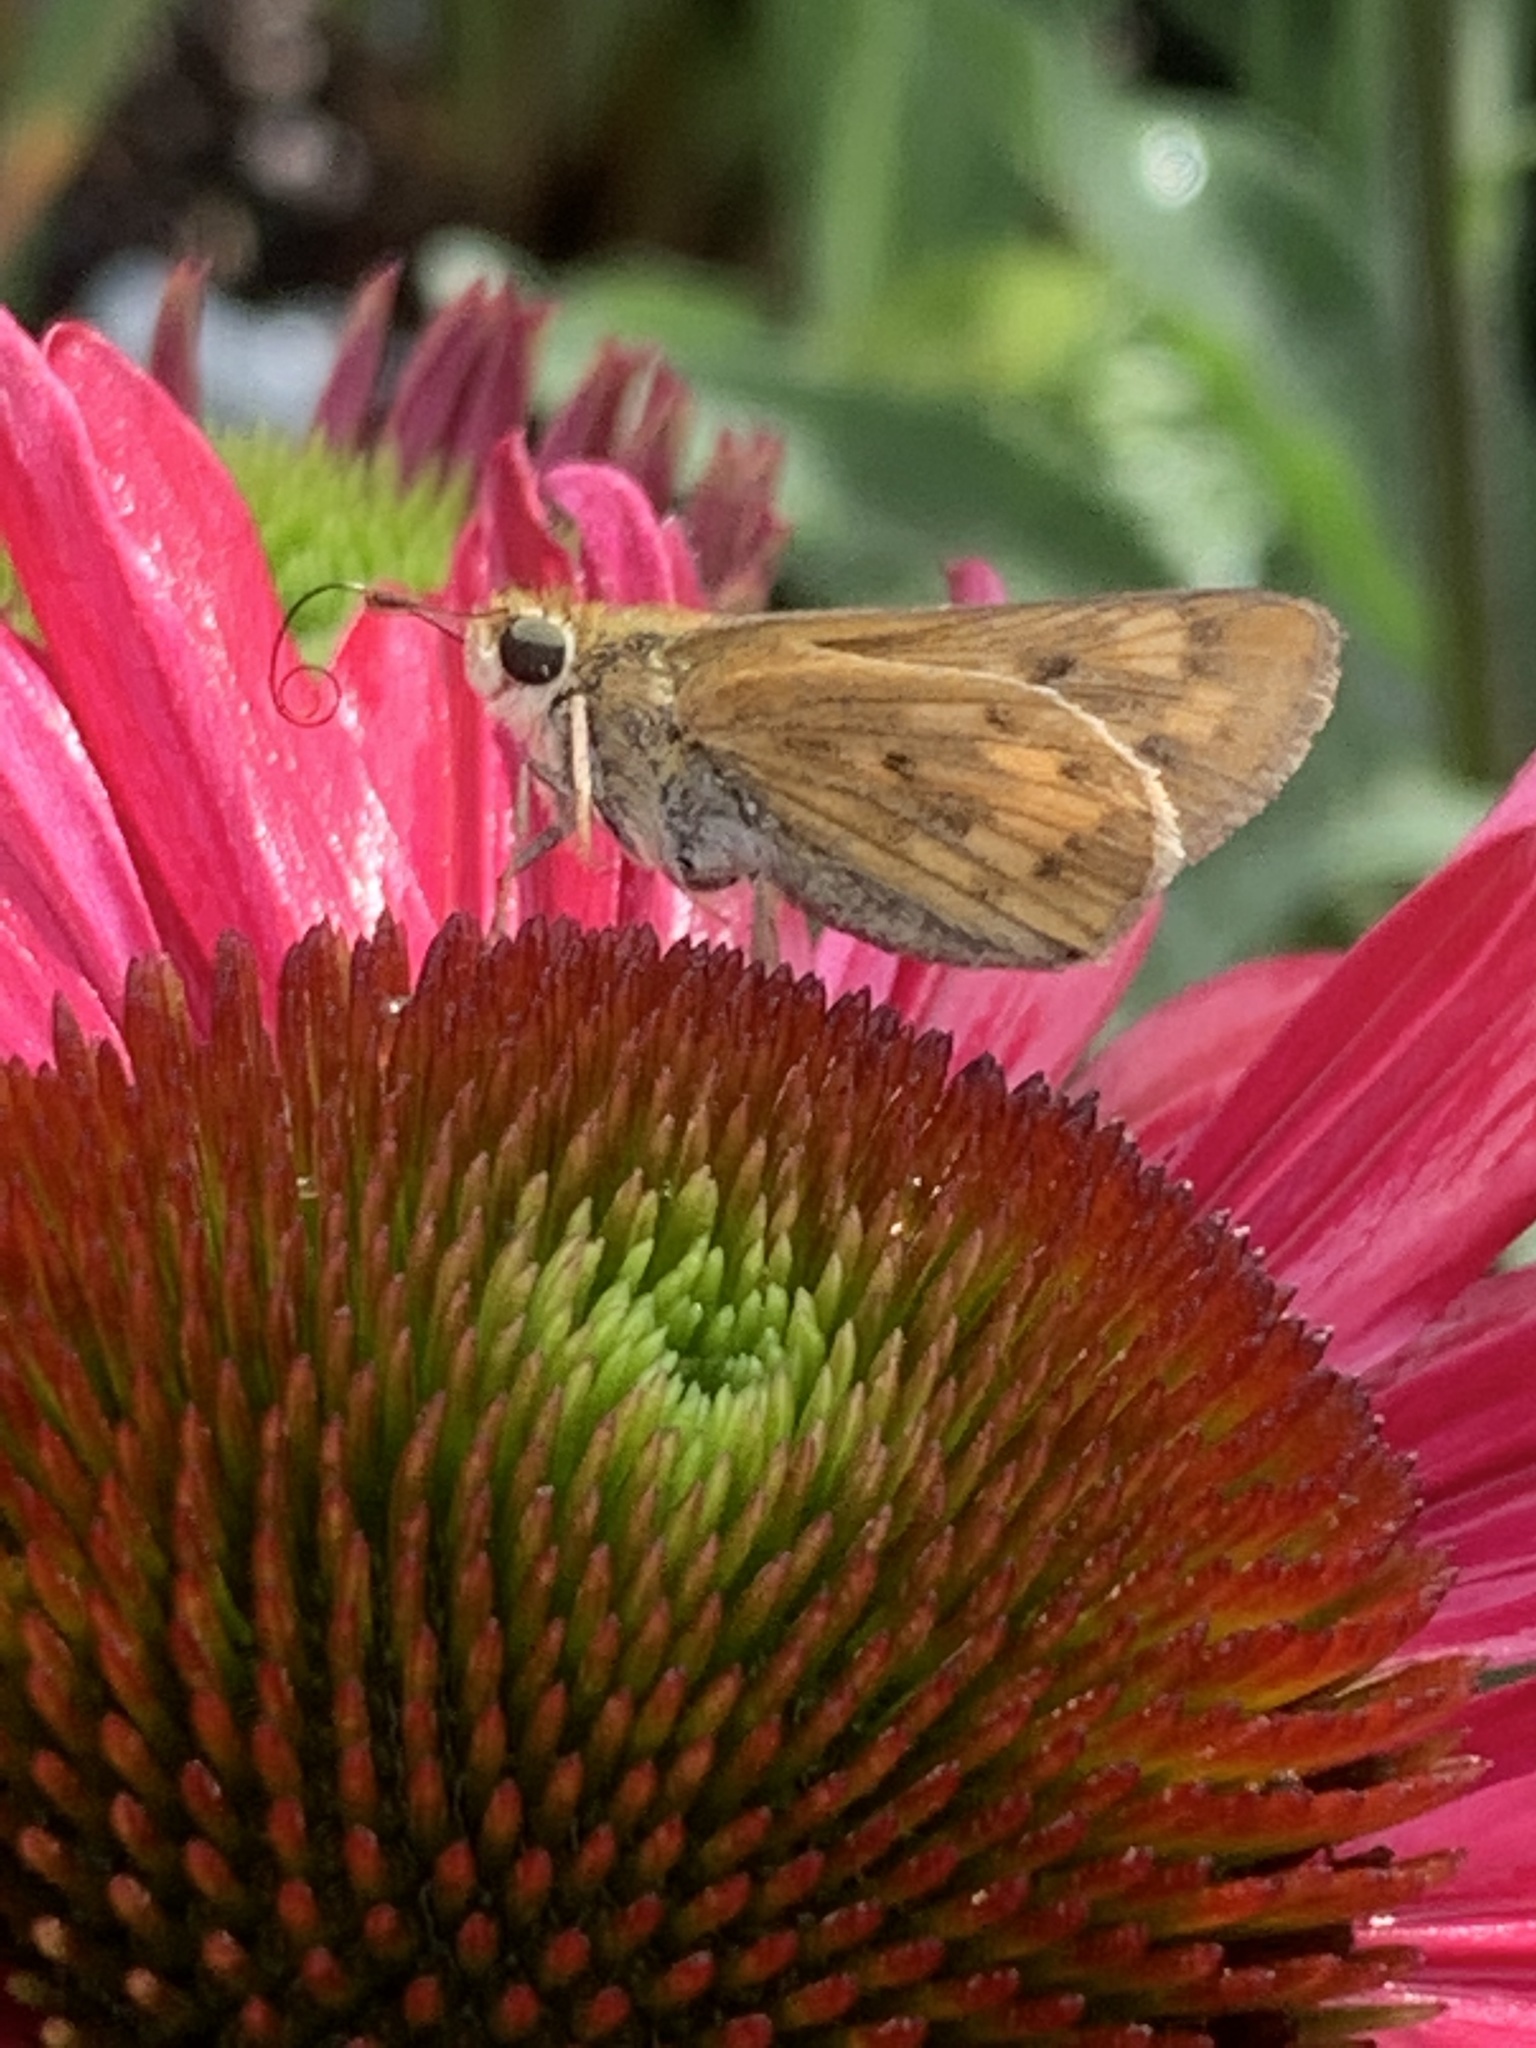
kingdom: Animalia
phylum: Arthropoda
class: Insecta
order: Lepidoptera
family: Hesperiidae
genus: Hylephila
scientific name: Hylephila phyleus
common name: Fiery skipper
